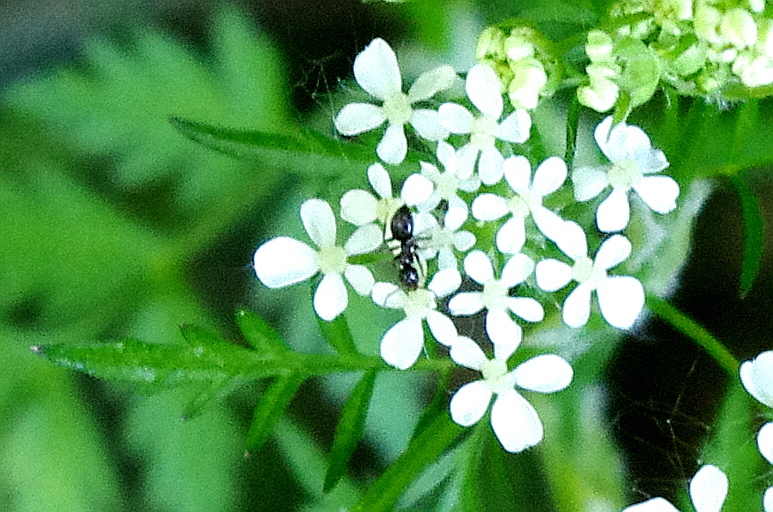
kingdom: Animalia
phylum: Arthropoda
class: Insecta
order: Hymenoptera
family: Formicidae
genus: Lasius
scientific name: Lasius niger
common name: Small black ant
